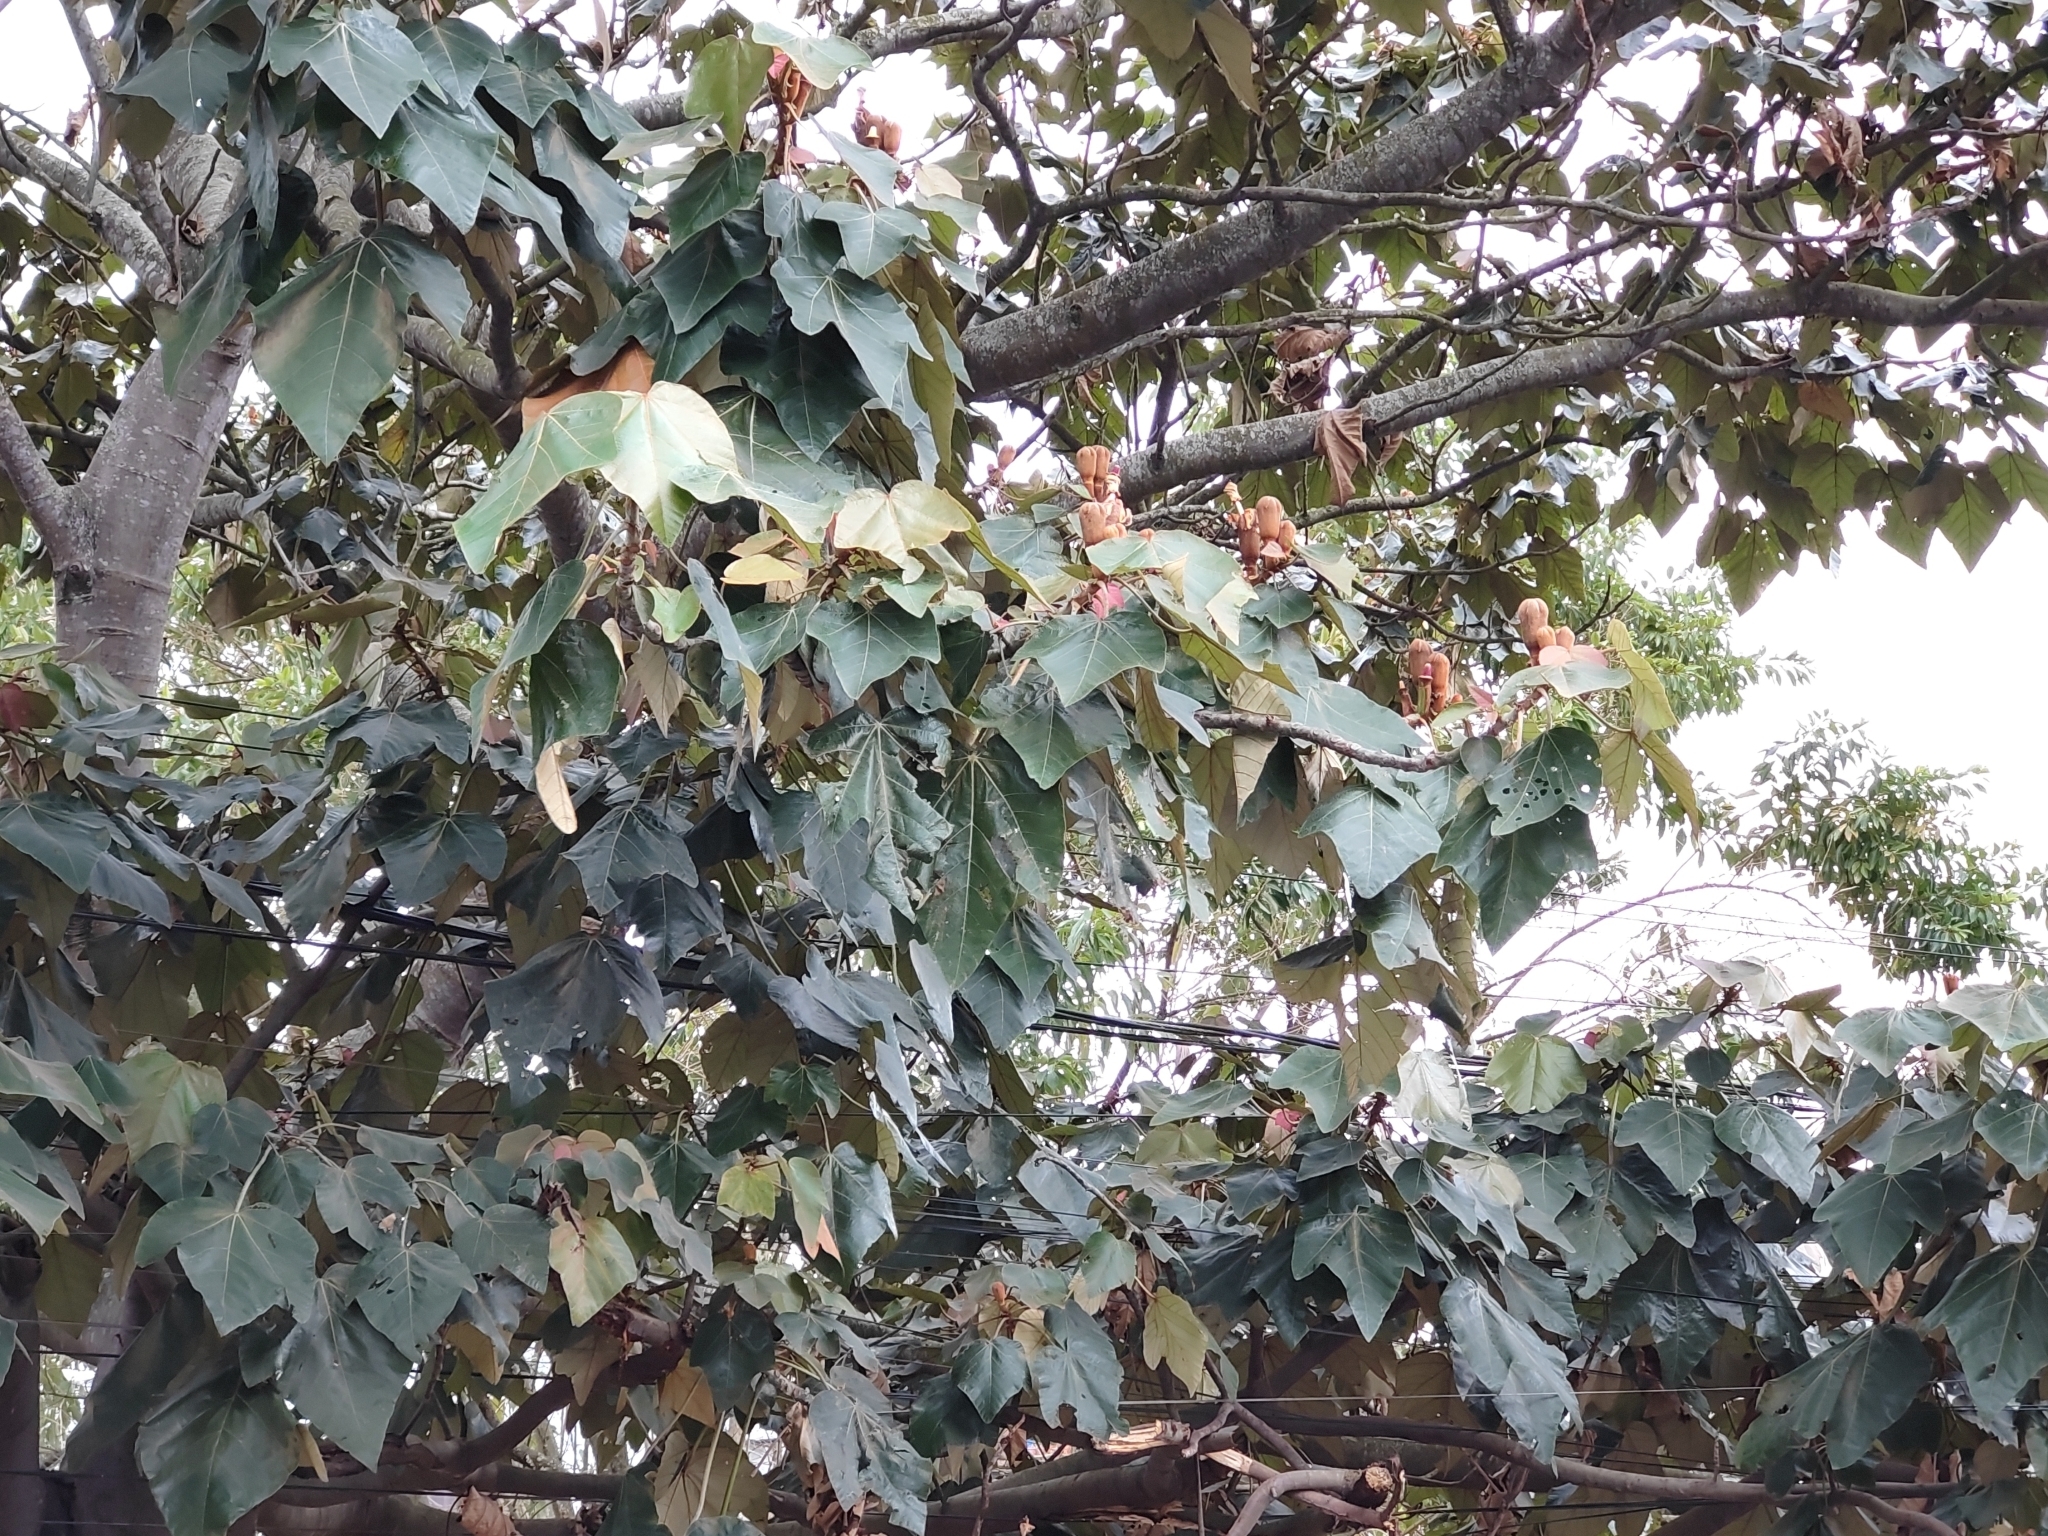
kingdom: Plantae
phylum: Tracheophyta
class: Magnoliopsida
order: Malvales
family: Malvaceae
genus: Ochroma
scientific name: Ochroma pyramidale
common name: Balsa
